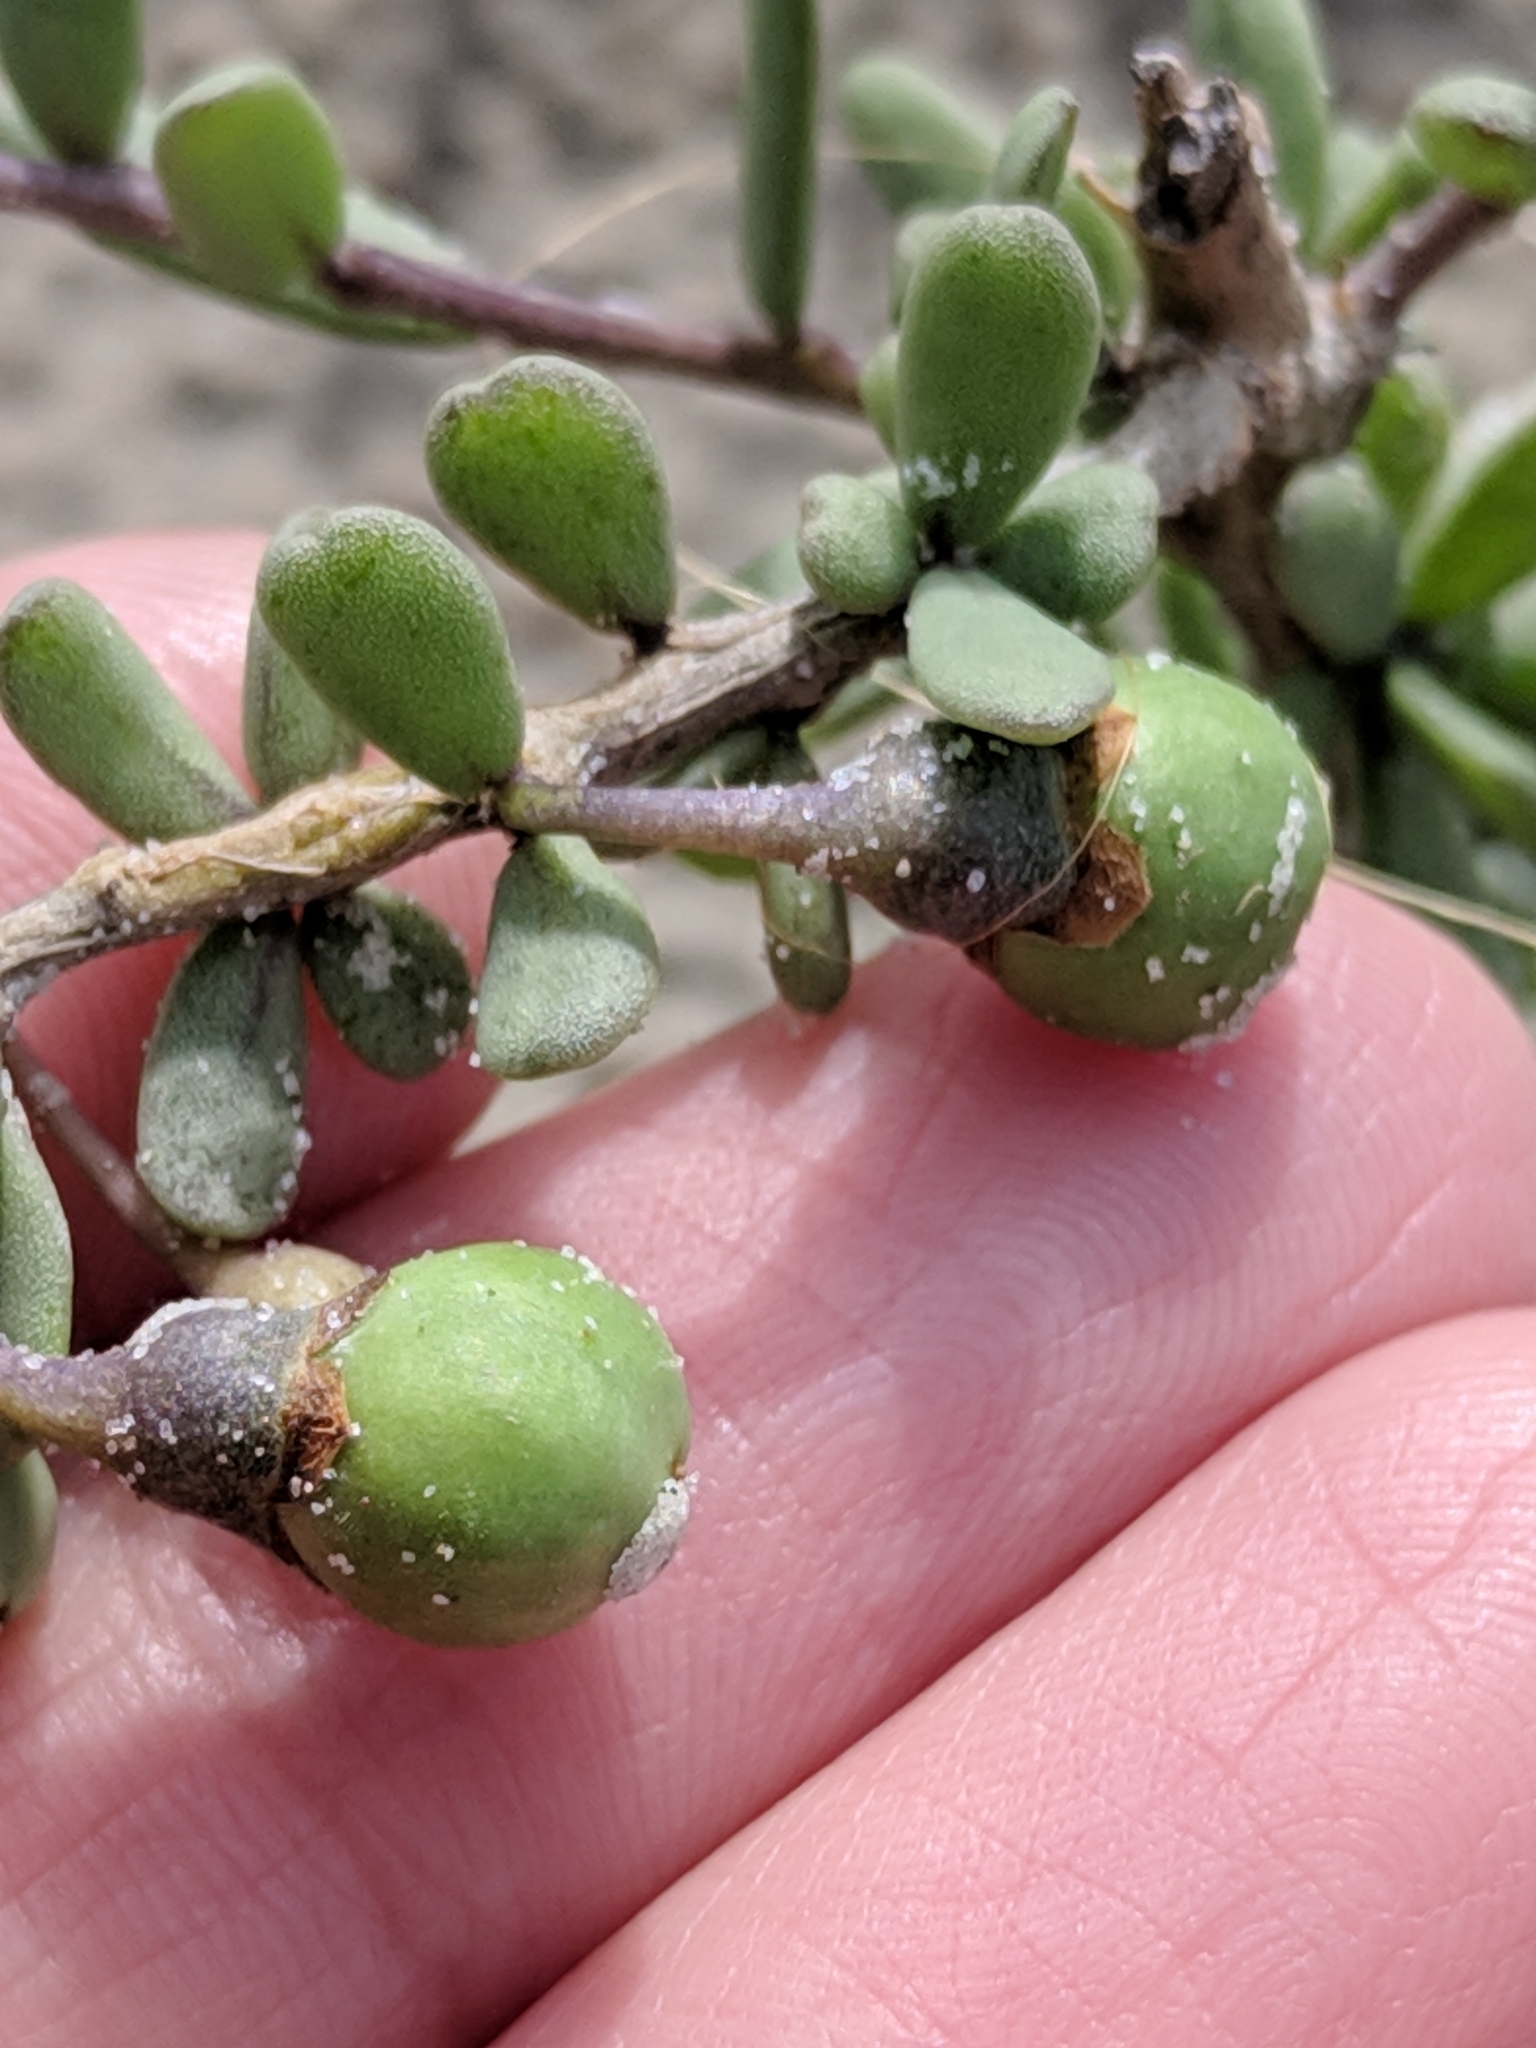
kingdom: Plantae
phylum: Tracheophyta
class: Magnoliopsida
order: Solanales
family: Solanaceae
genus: Lycium
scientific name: Lycium carolinianum
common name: Christmasberry
